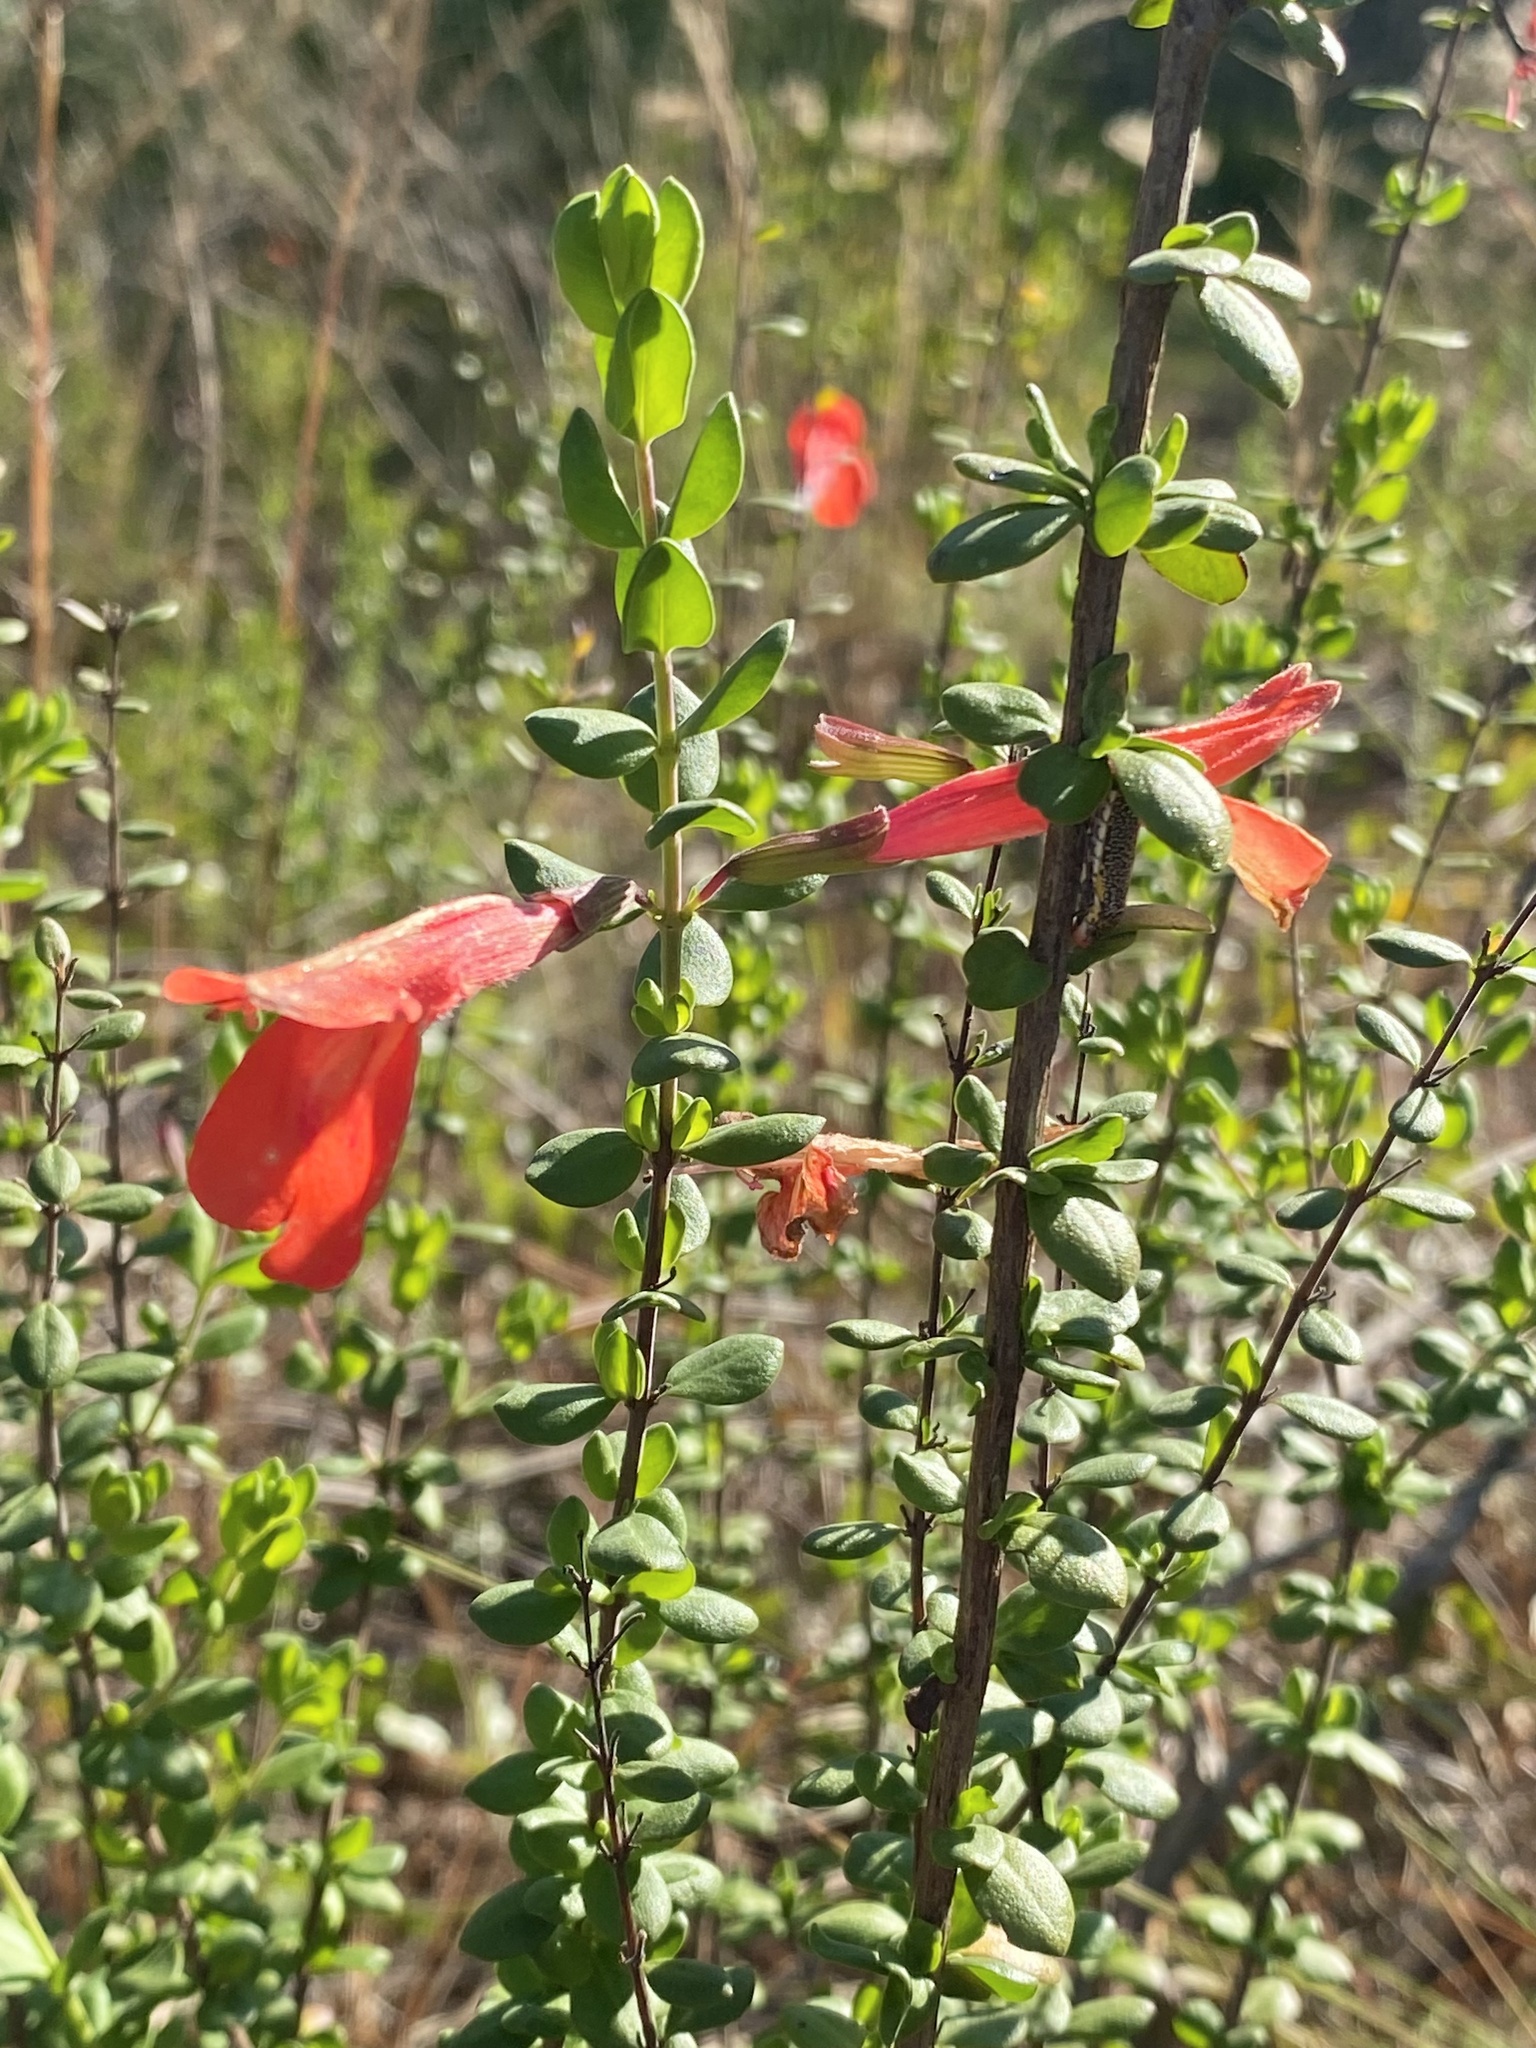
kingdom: Plantae
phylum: Tracheophyta
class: Magnoliopsida
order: Lamiales
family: Lamiaceae
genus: Clinopodium
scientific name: Clinopodium coccineum
